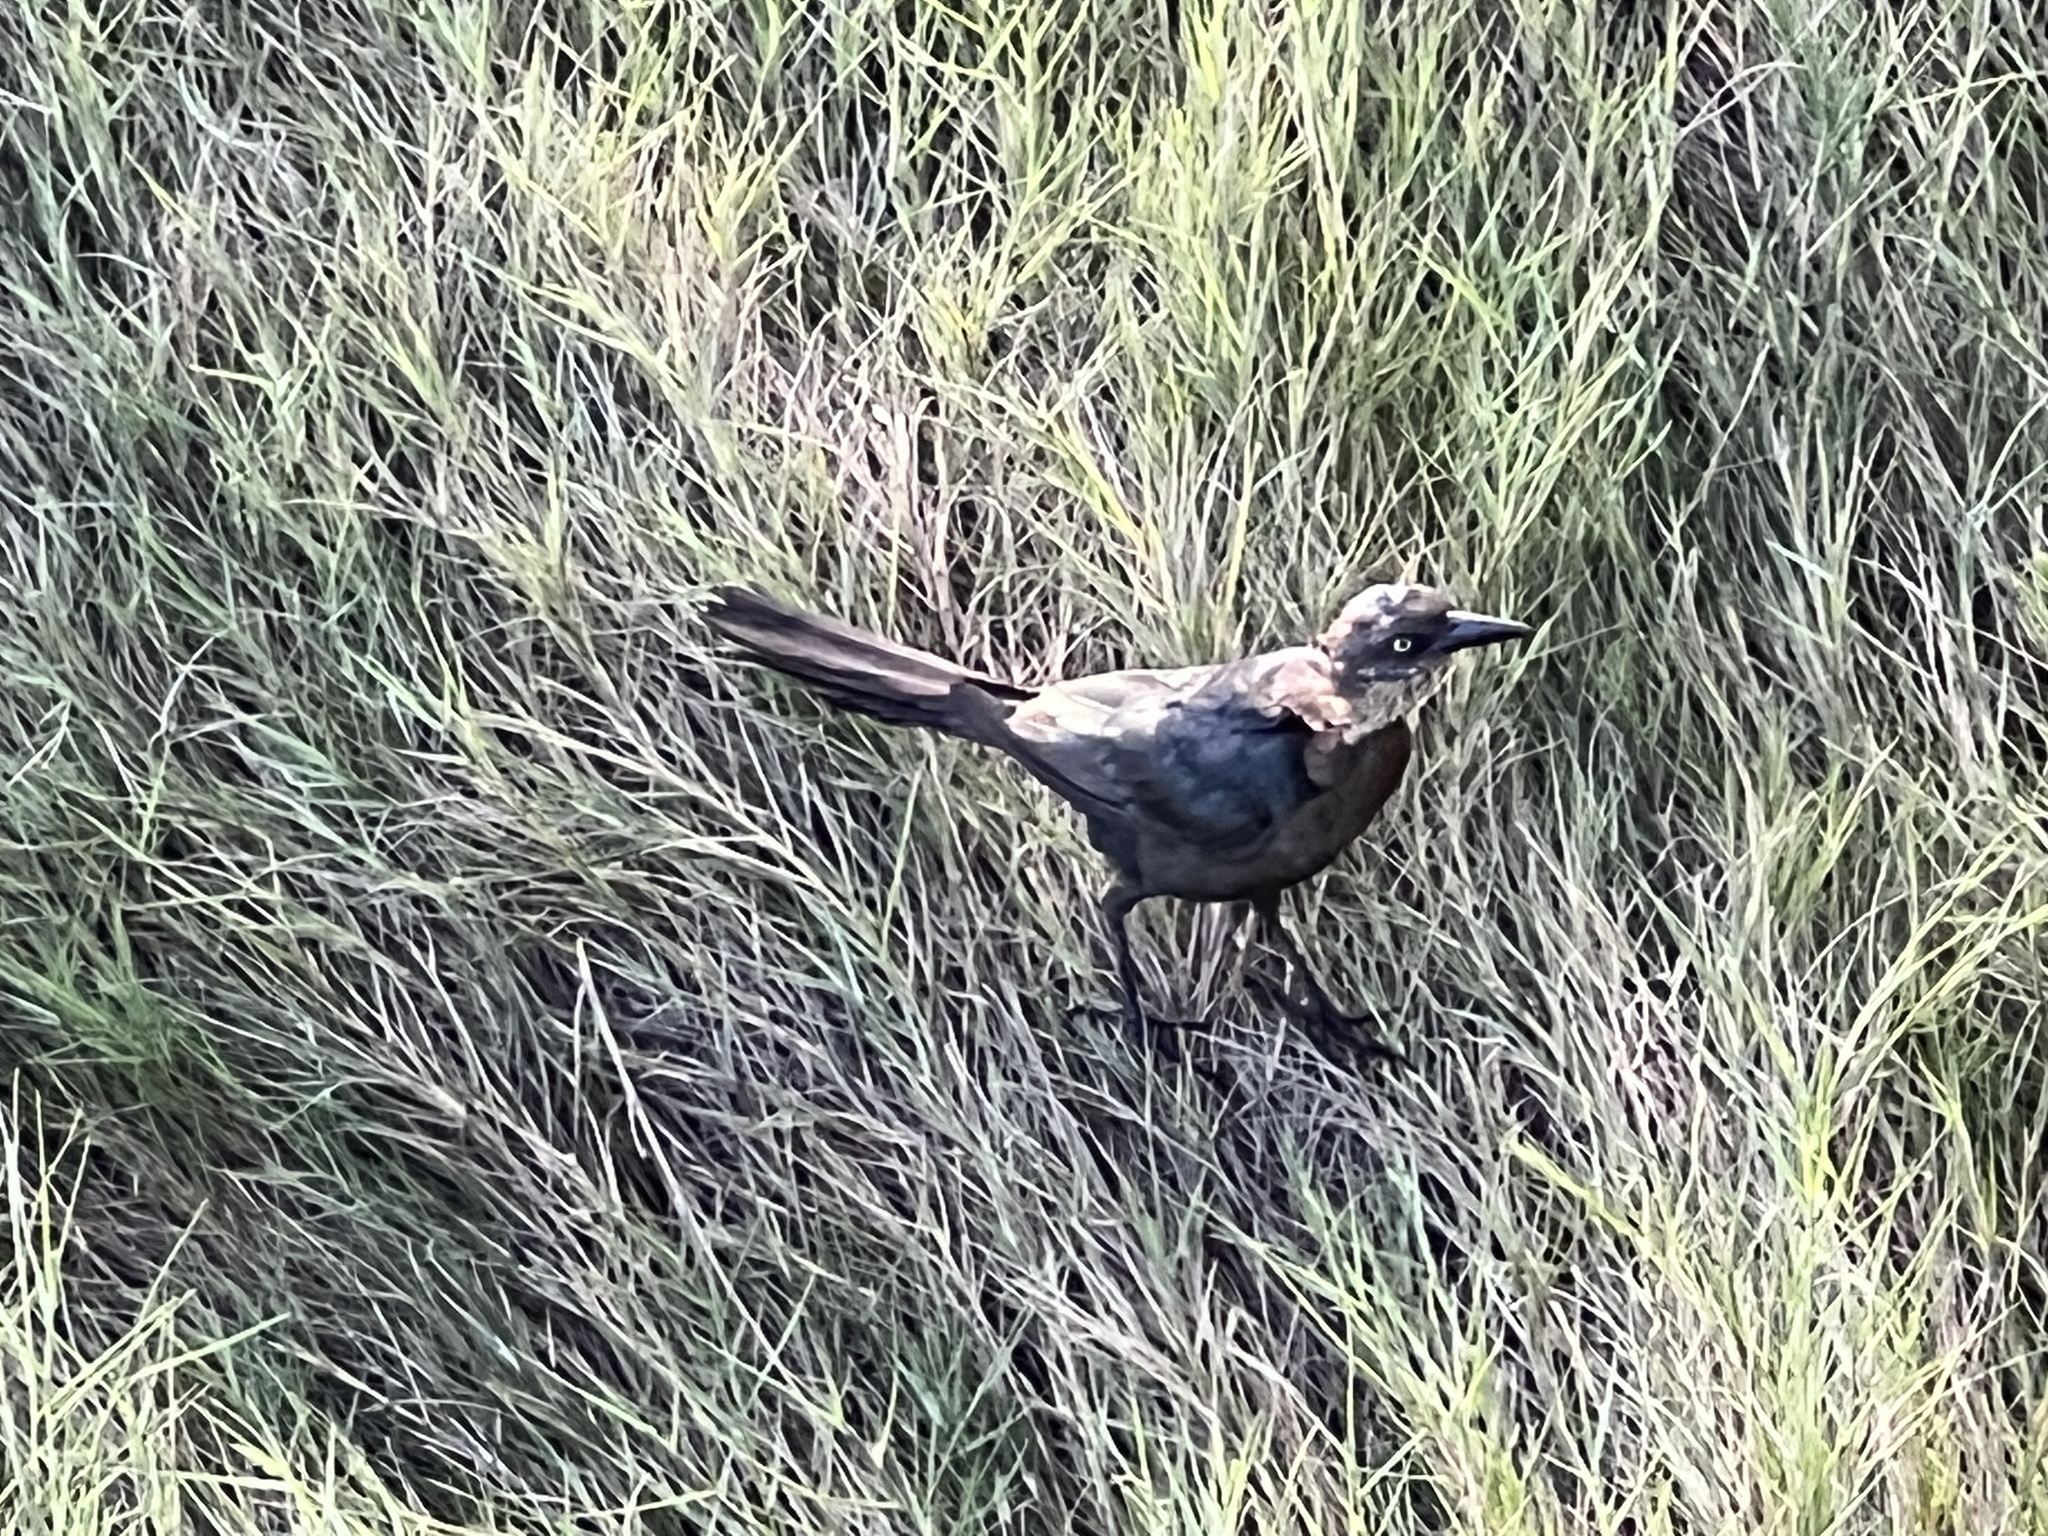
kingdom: Animalia
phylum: Chordata
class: Aves
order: Passeriformes
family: Icteridae
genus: Quiscalus
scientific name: Quiscalus mexicanus
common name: Great-tailed grackle
